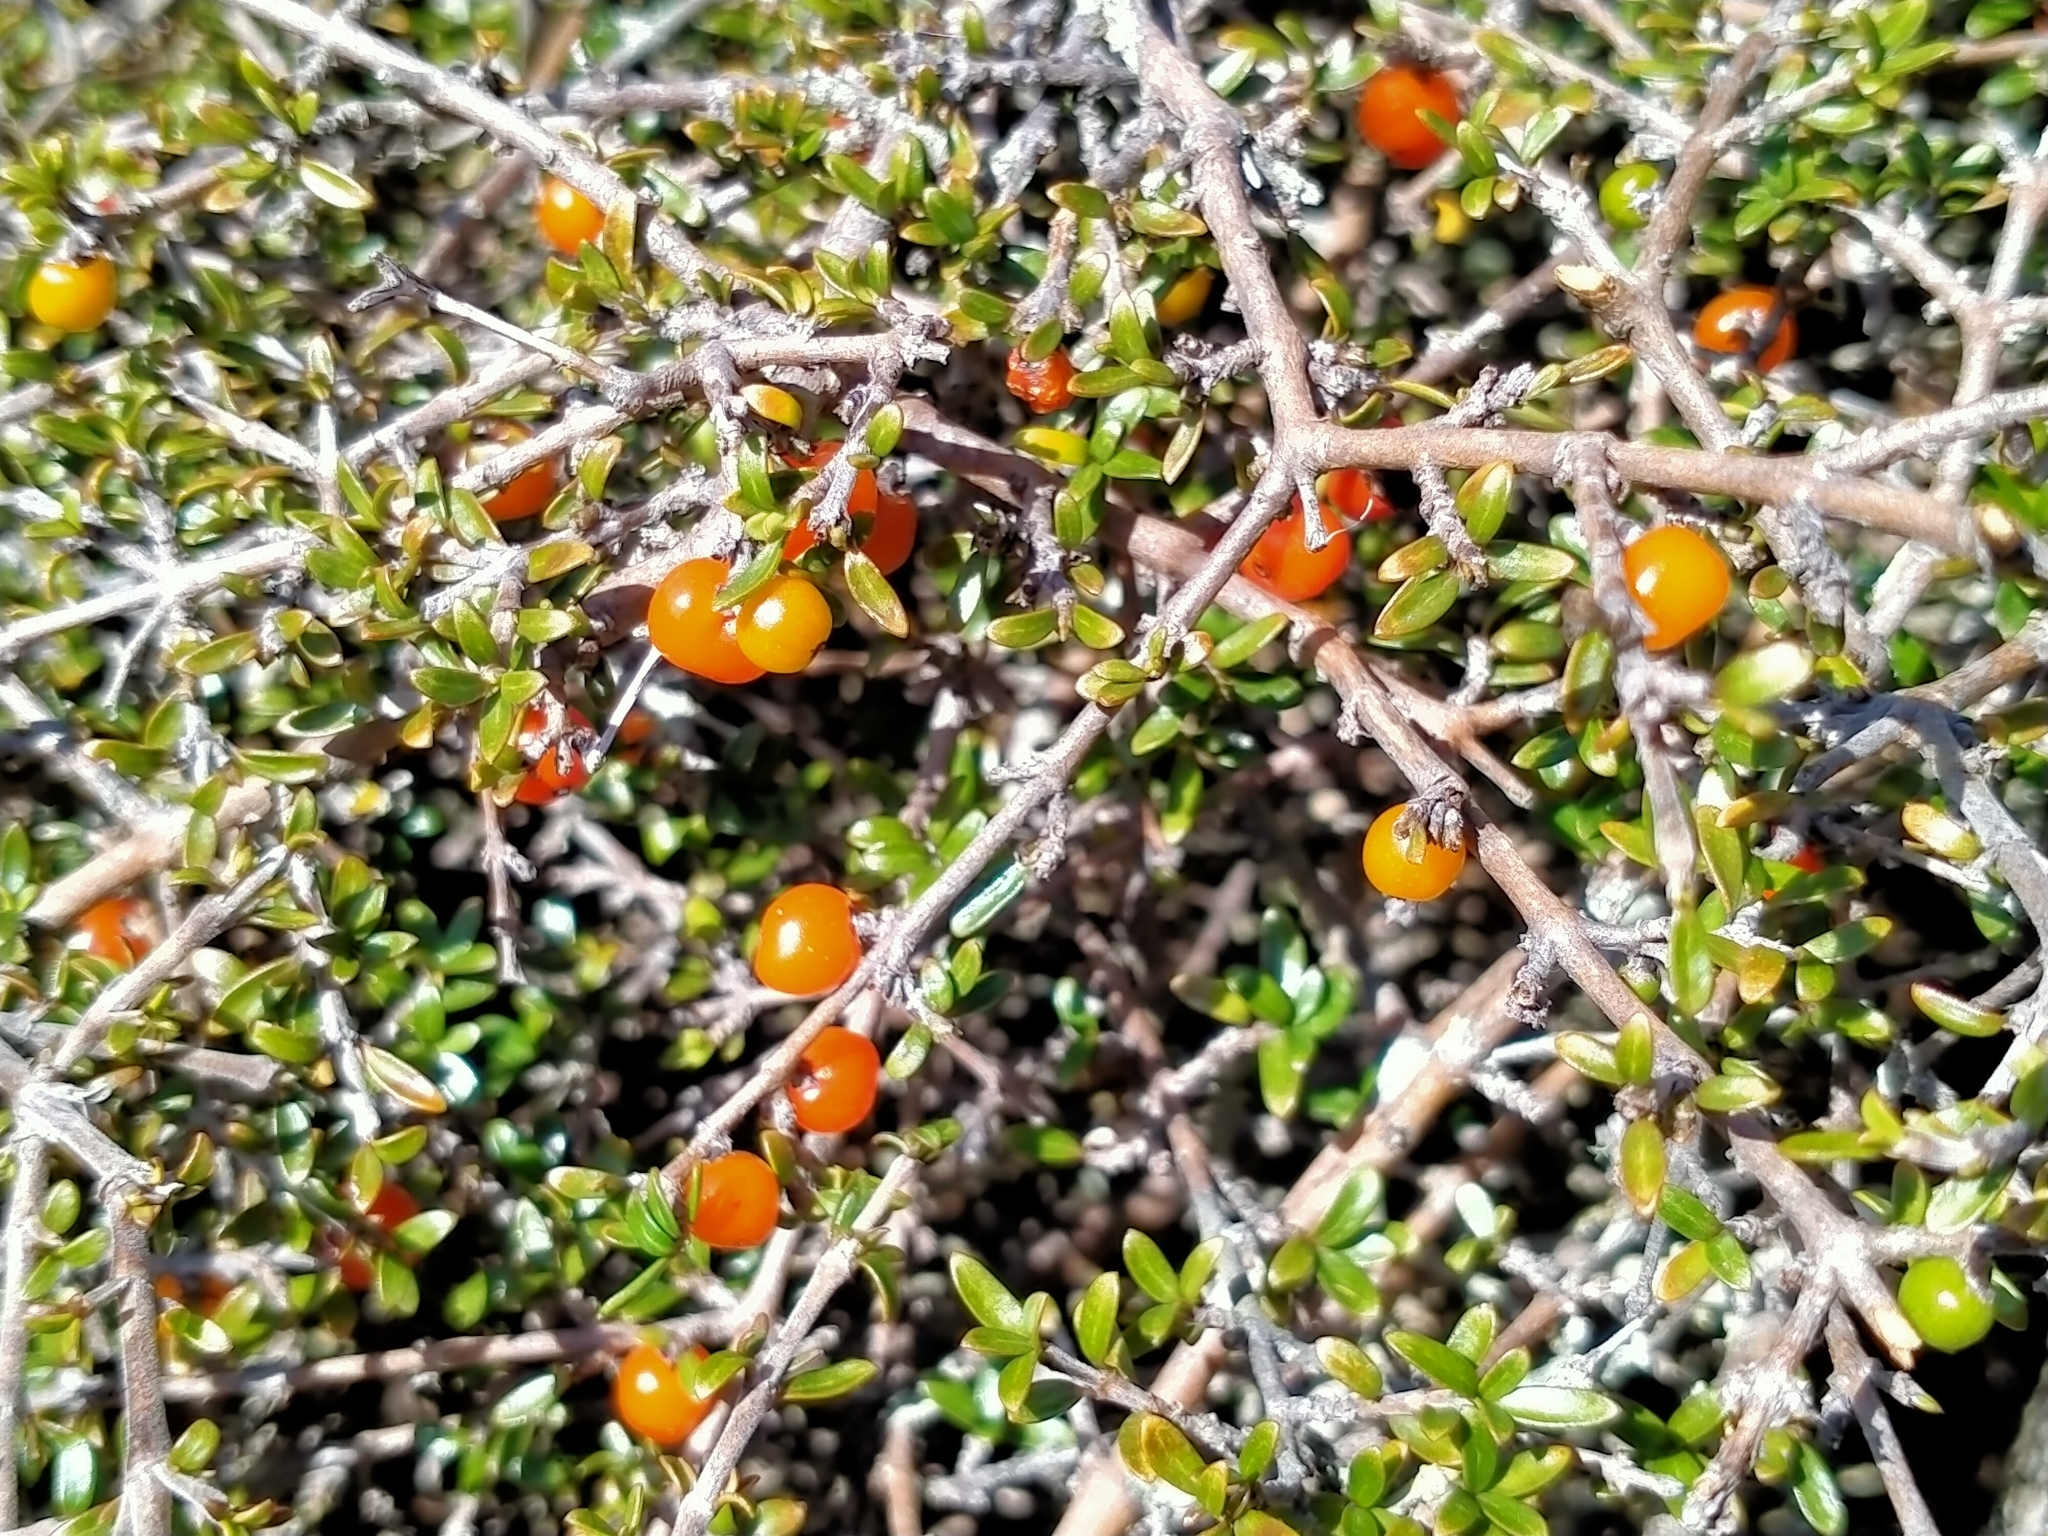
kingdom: Plantae
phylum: Tracheophyta
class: Magnoliopsida
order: Gentianales
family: Rubiaceae
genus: Coprosma
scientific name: Coprosma cheesemanii
